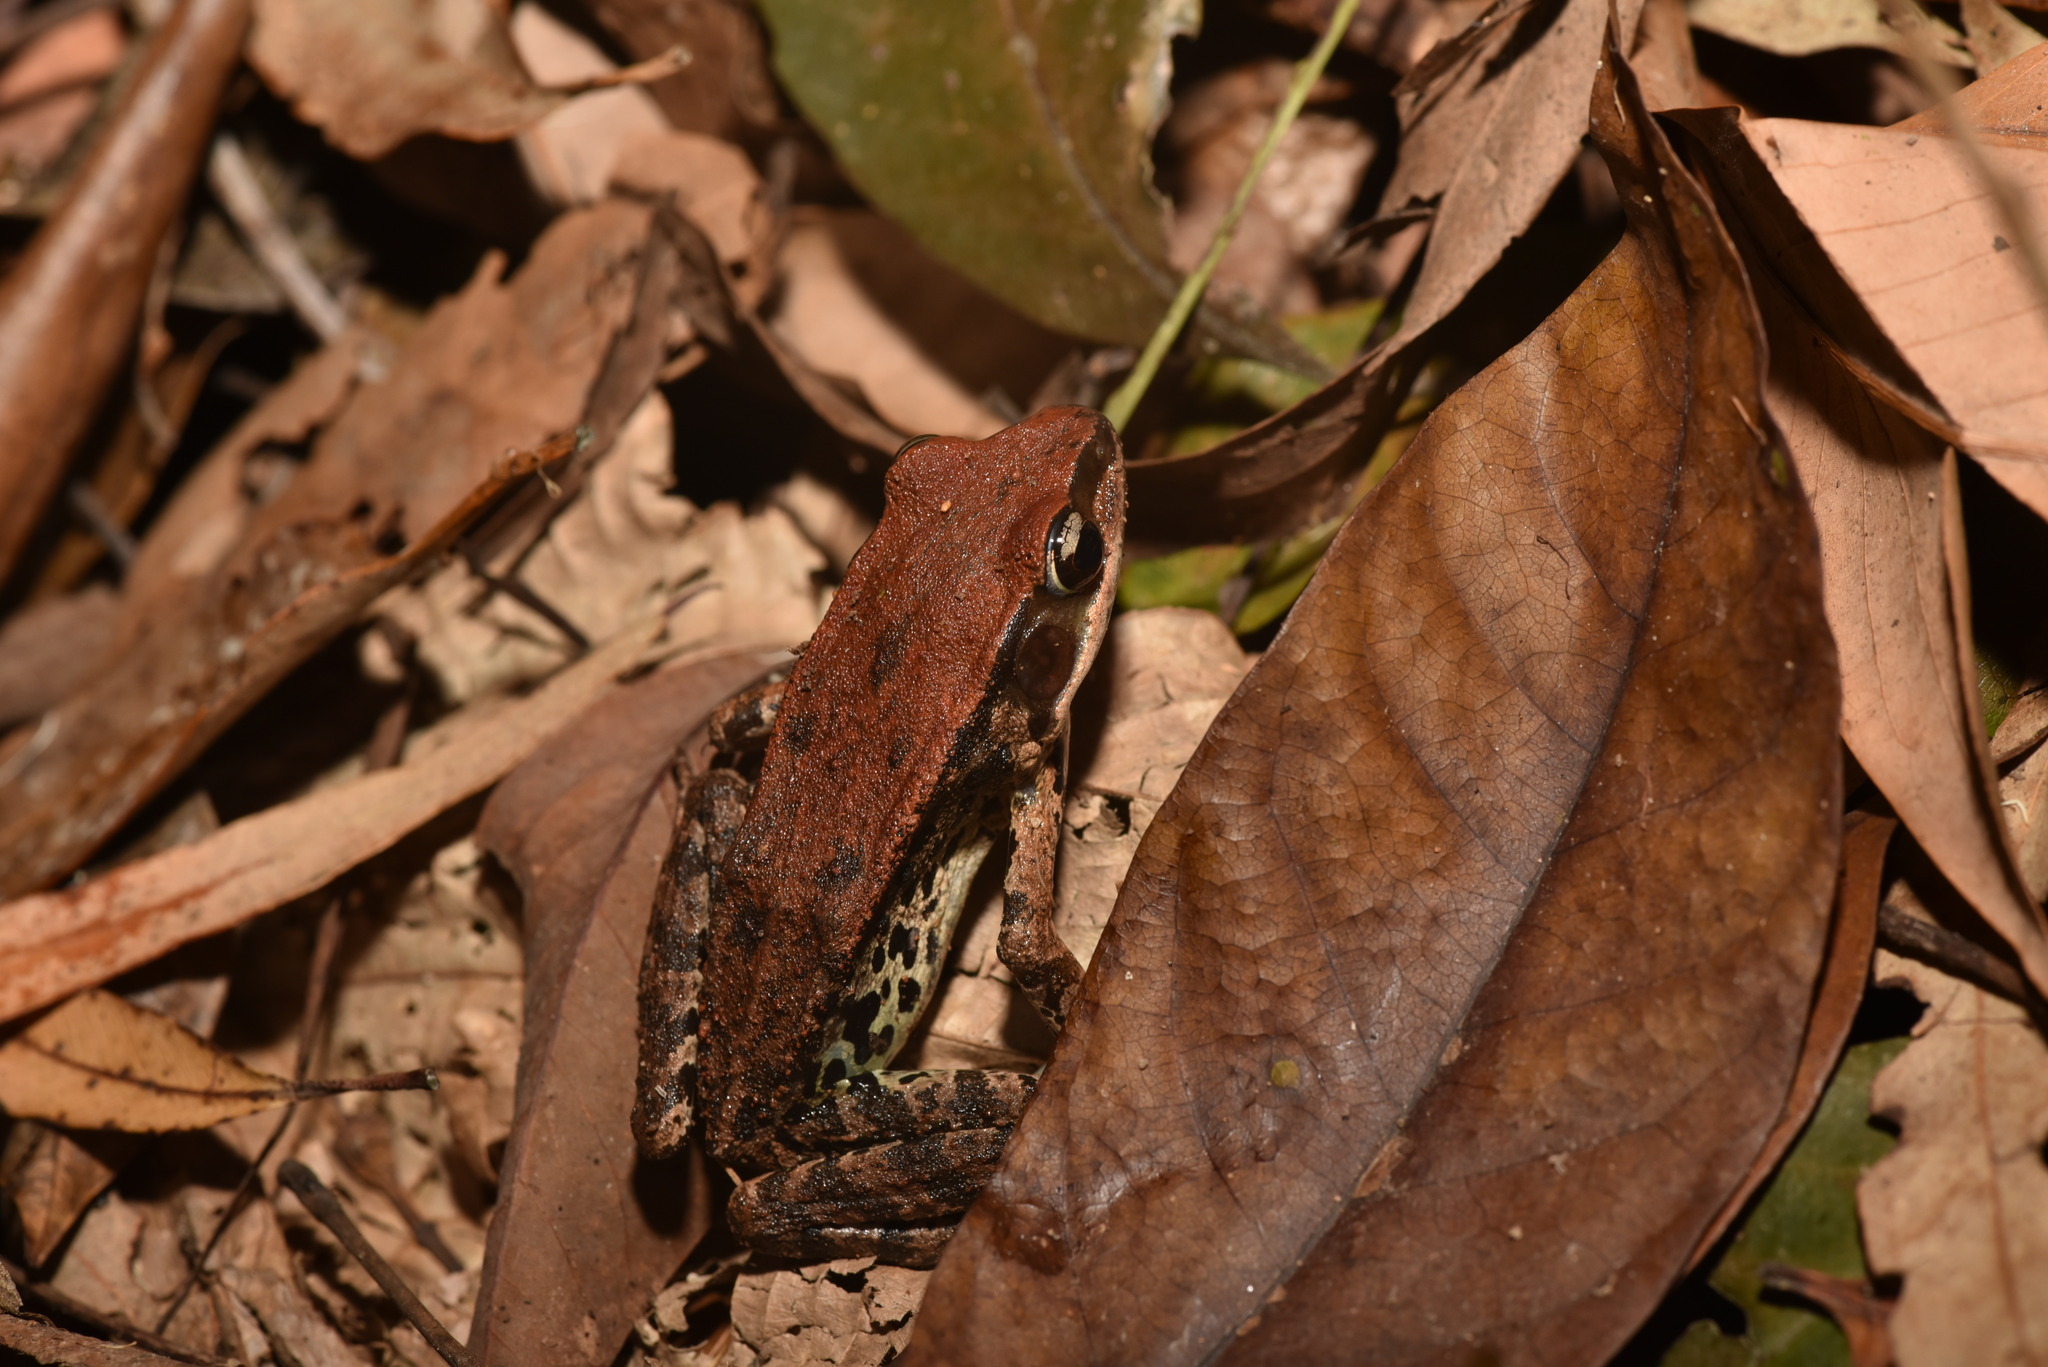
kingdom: Animalia
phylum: Chordata
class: Amphibia
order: Anura
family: Ranidae
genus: Hylarana
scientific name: Hylarana latouchii
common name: Broad-folded frog
